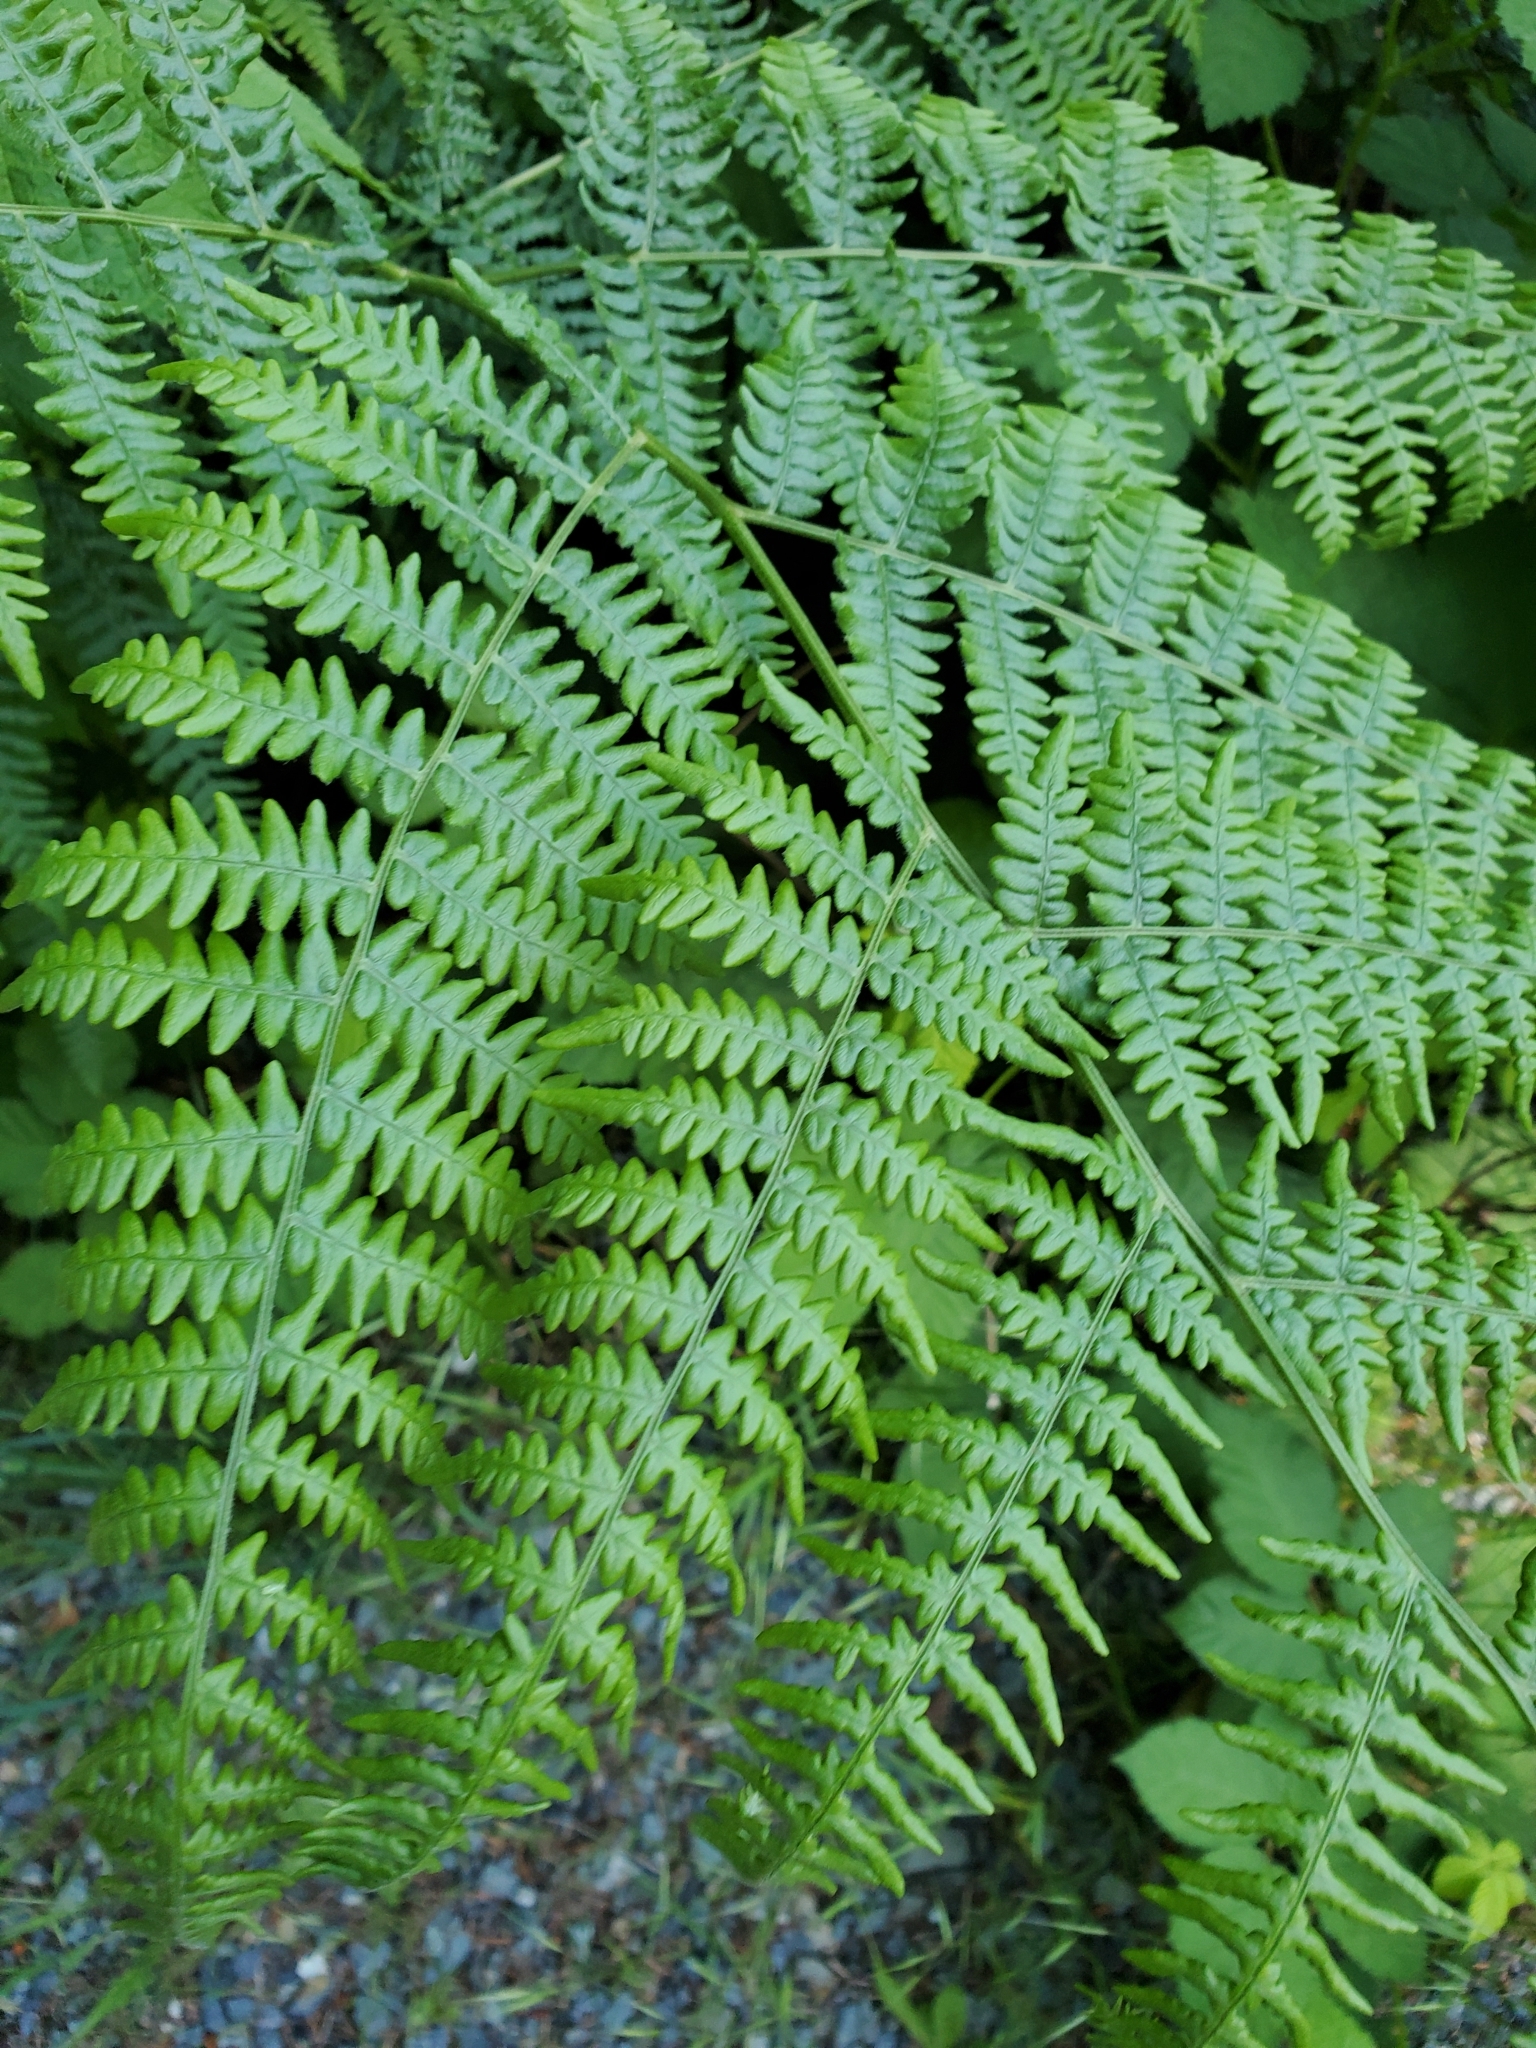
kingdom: Plantae
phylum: Tracheophyta
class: Polypodiopsida
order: Polypodiales
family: Dennstaedtiaceae
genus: Pteridium
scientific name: Pteridium aquilinum
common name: Bracken
